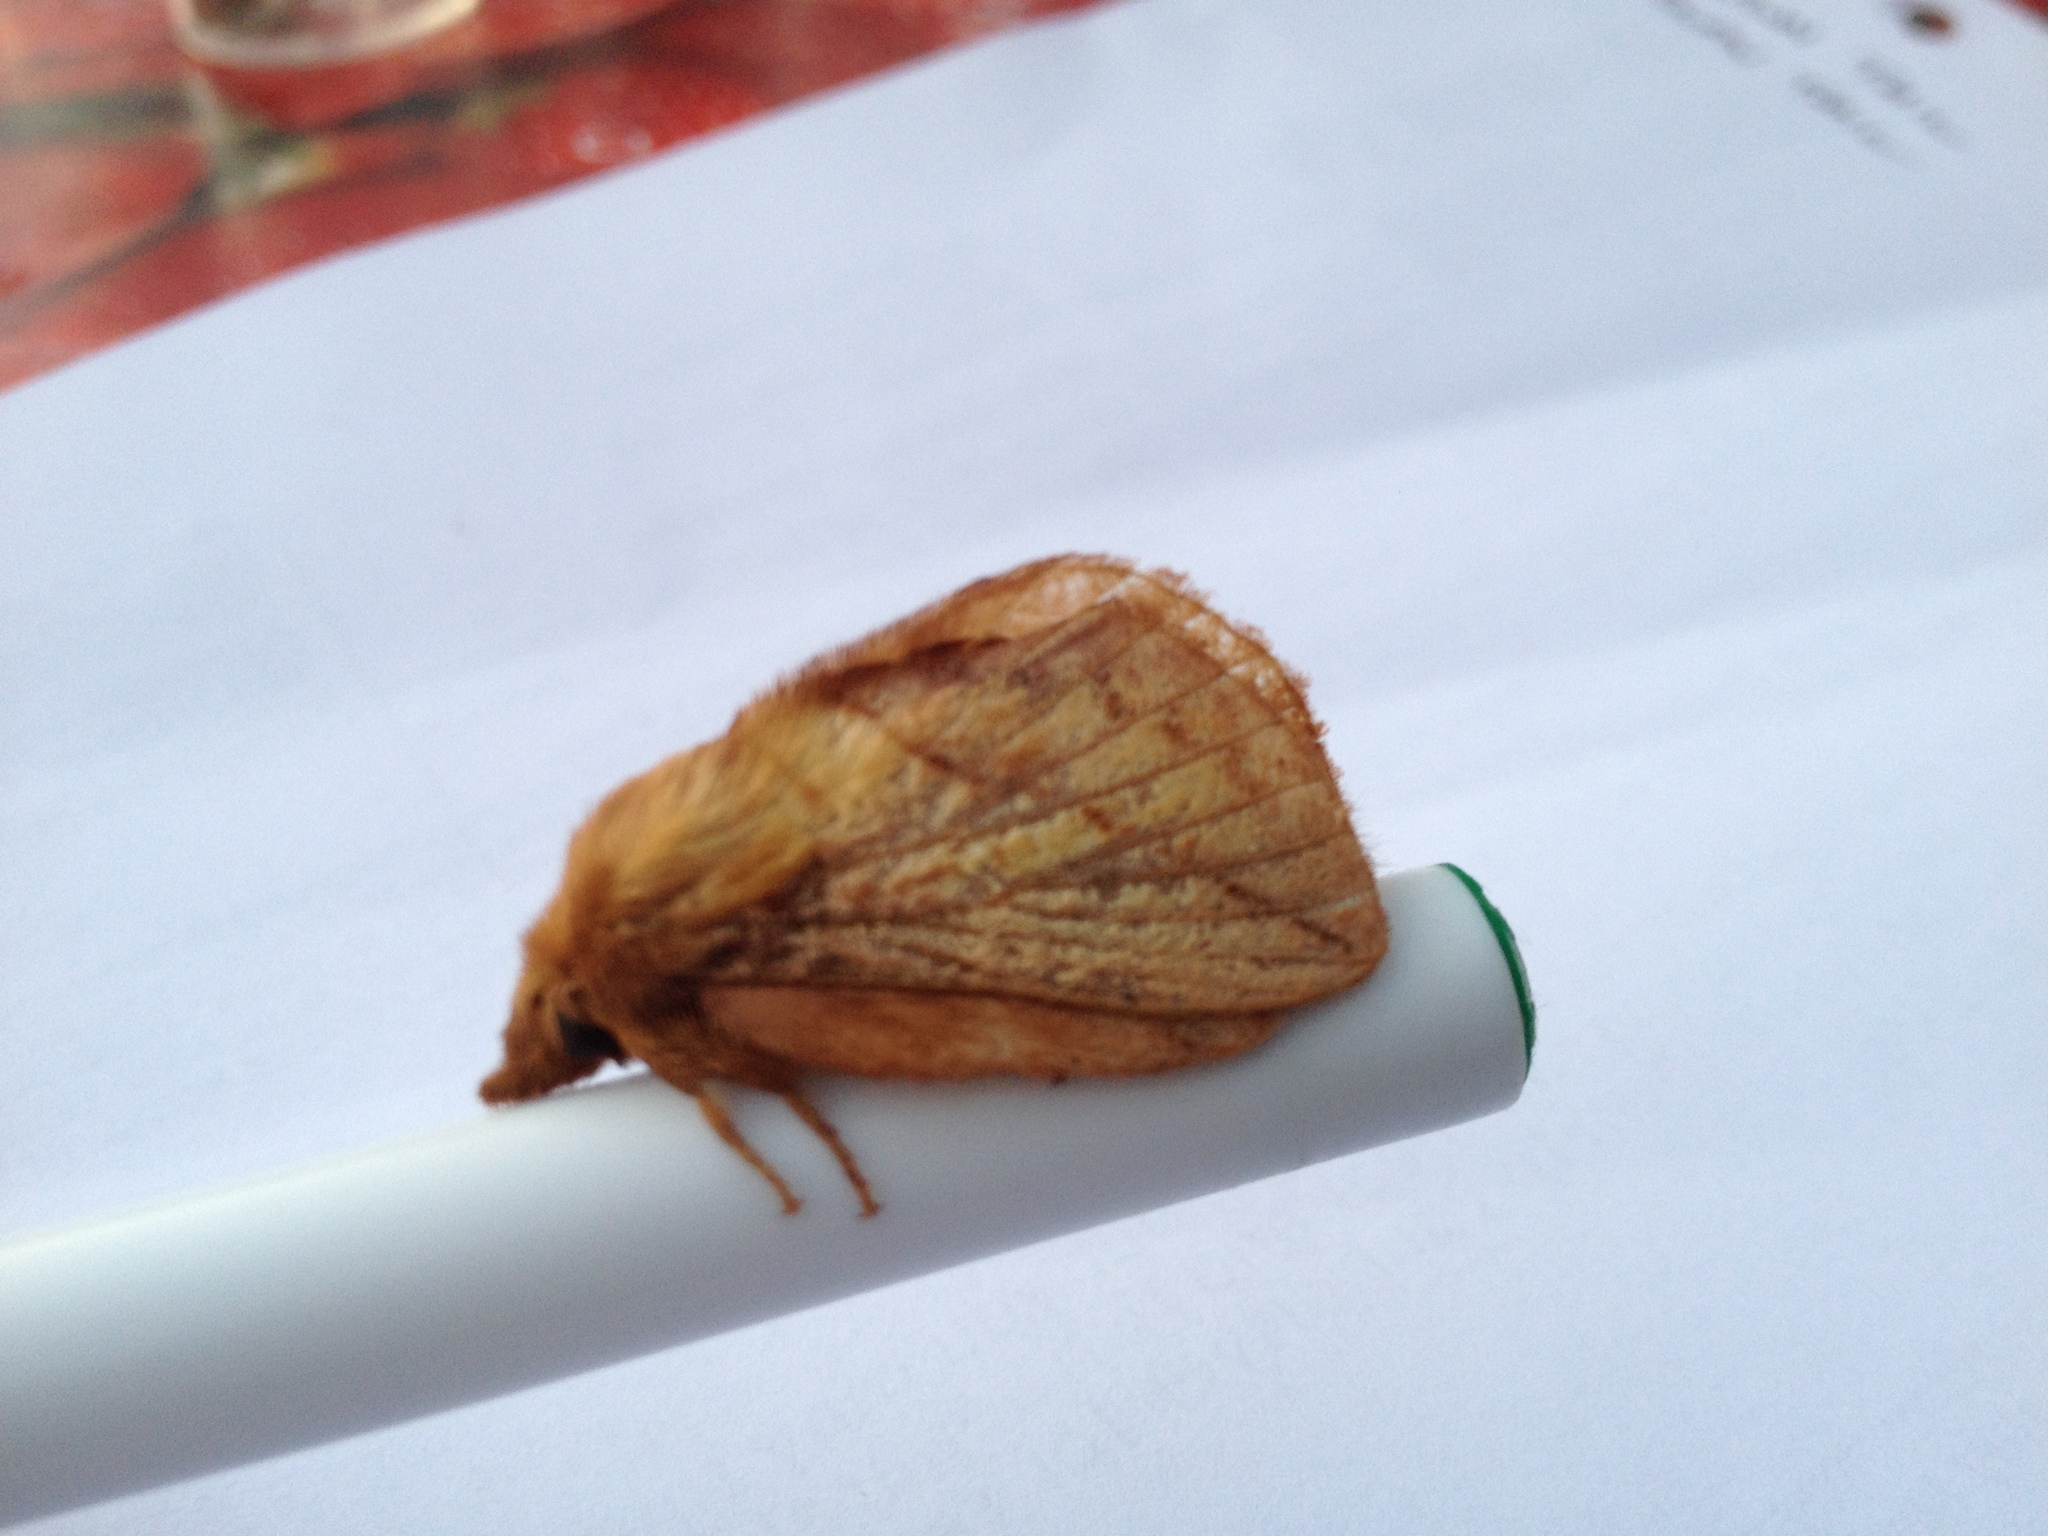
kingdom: Animalia
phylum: Arthropoda
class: Insecta
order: Lepidoptera
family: Lasiocampidae
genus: Euthrix
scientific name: Euthrix potatoria
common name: Drinker
